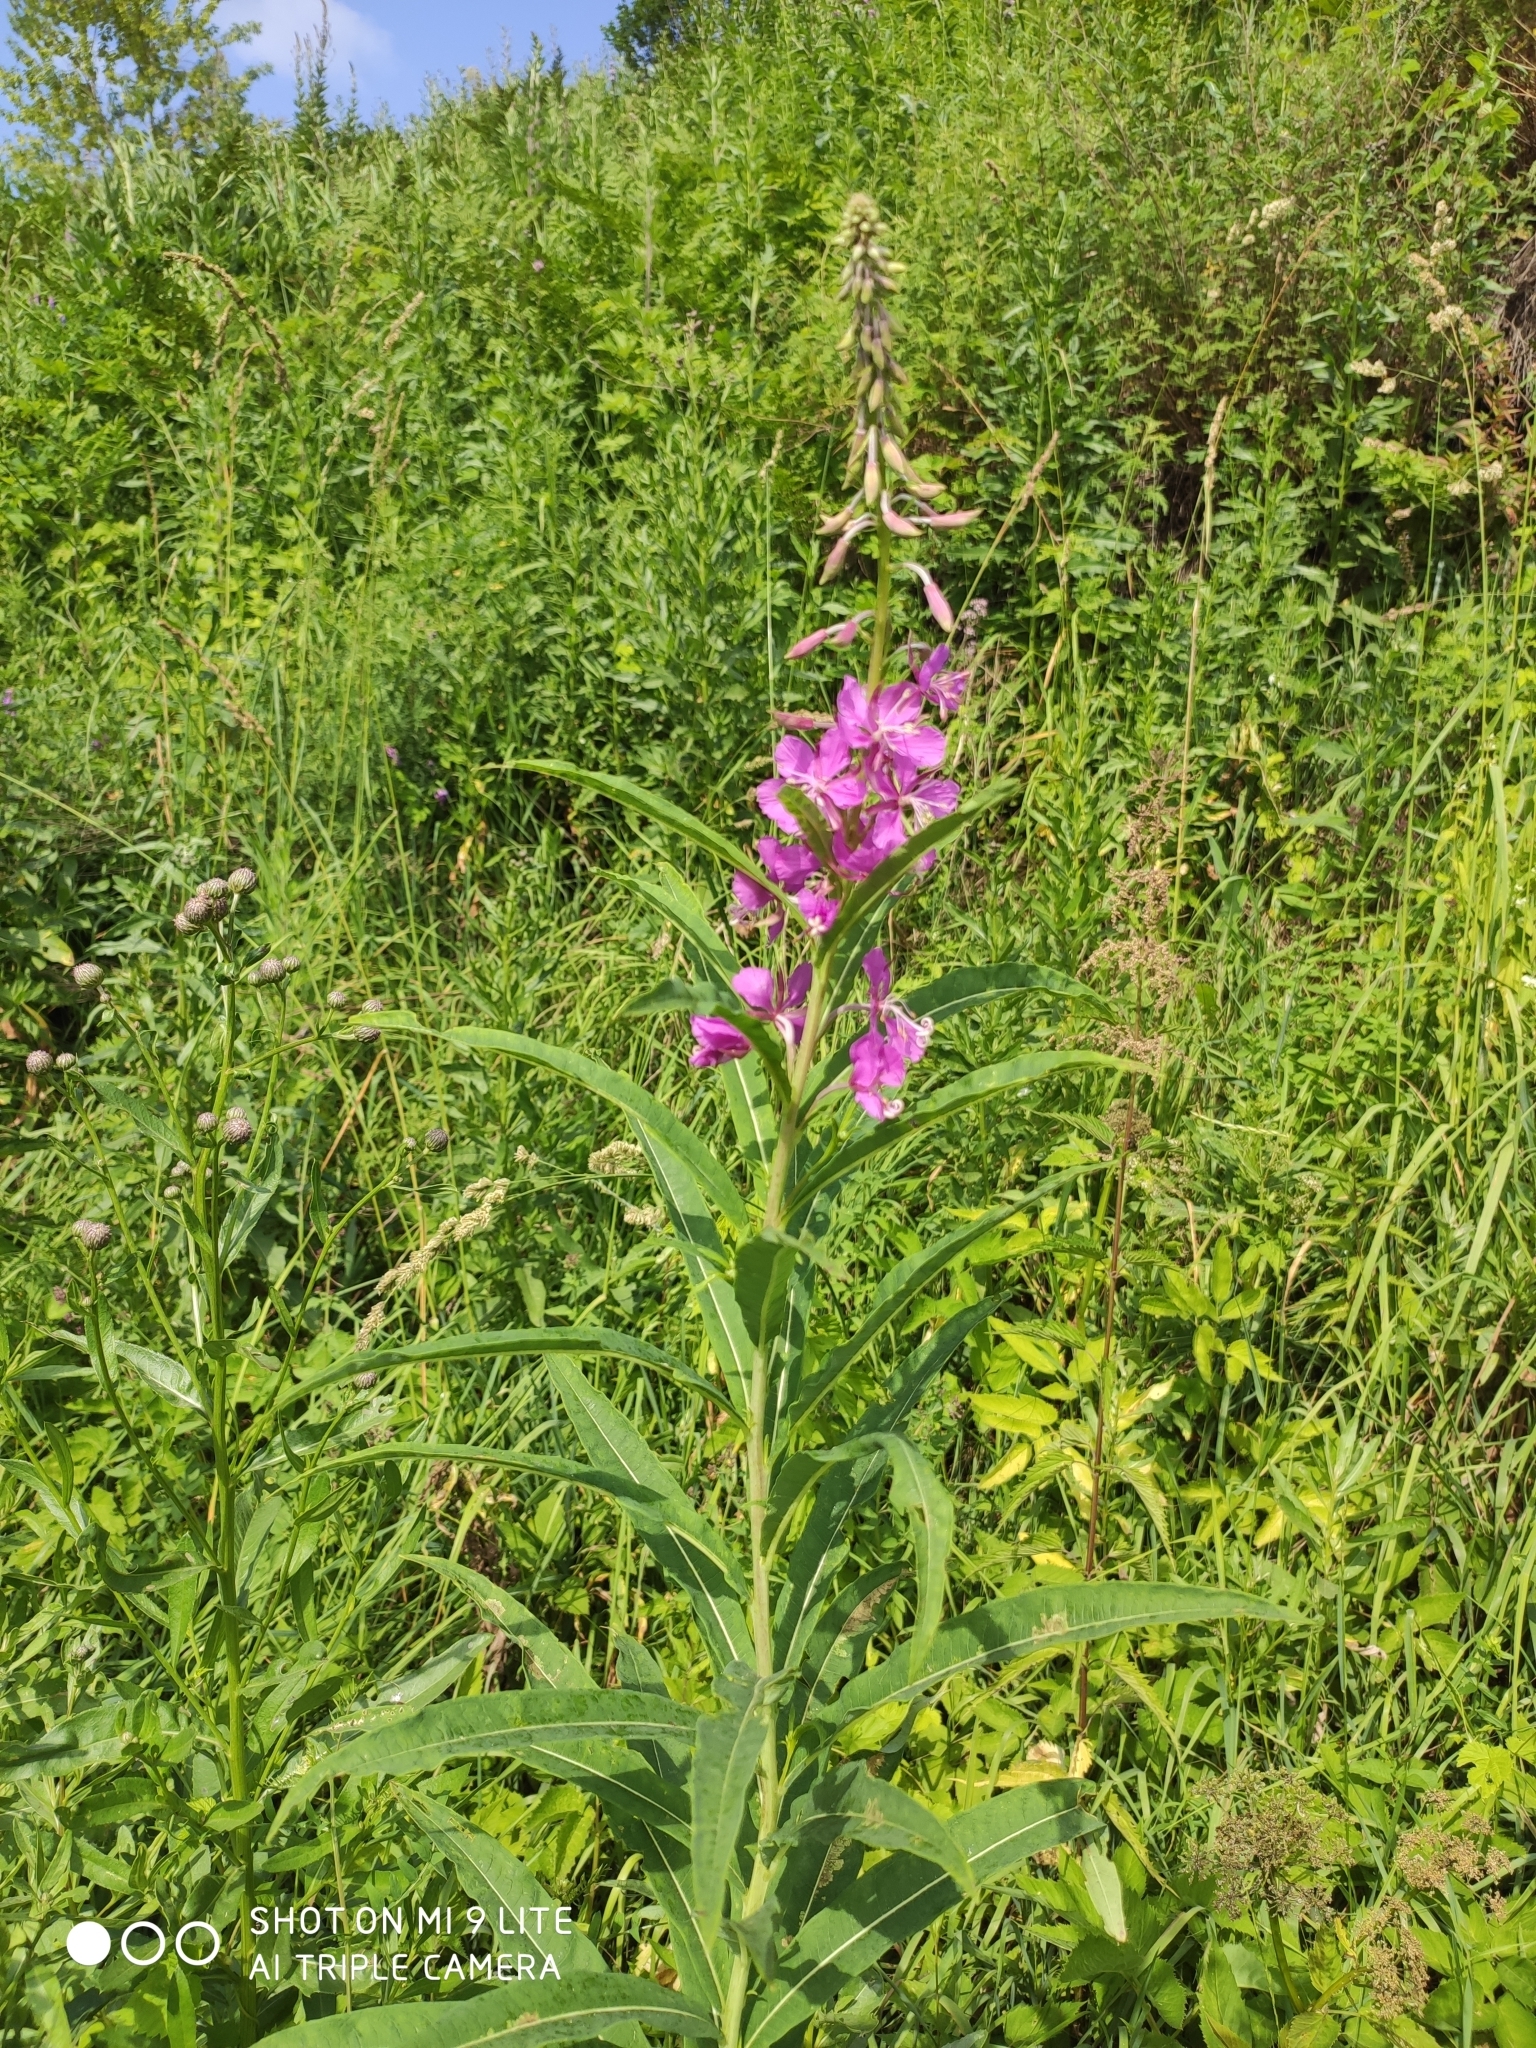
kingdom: Plantae
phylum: Tracheophyta
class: Magnoliopsida
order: Myrtales
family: Onagraceae
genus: Chamaenerion
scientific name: Chamaenerion angustifolium
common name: Fireweed
